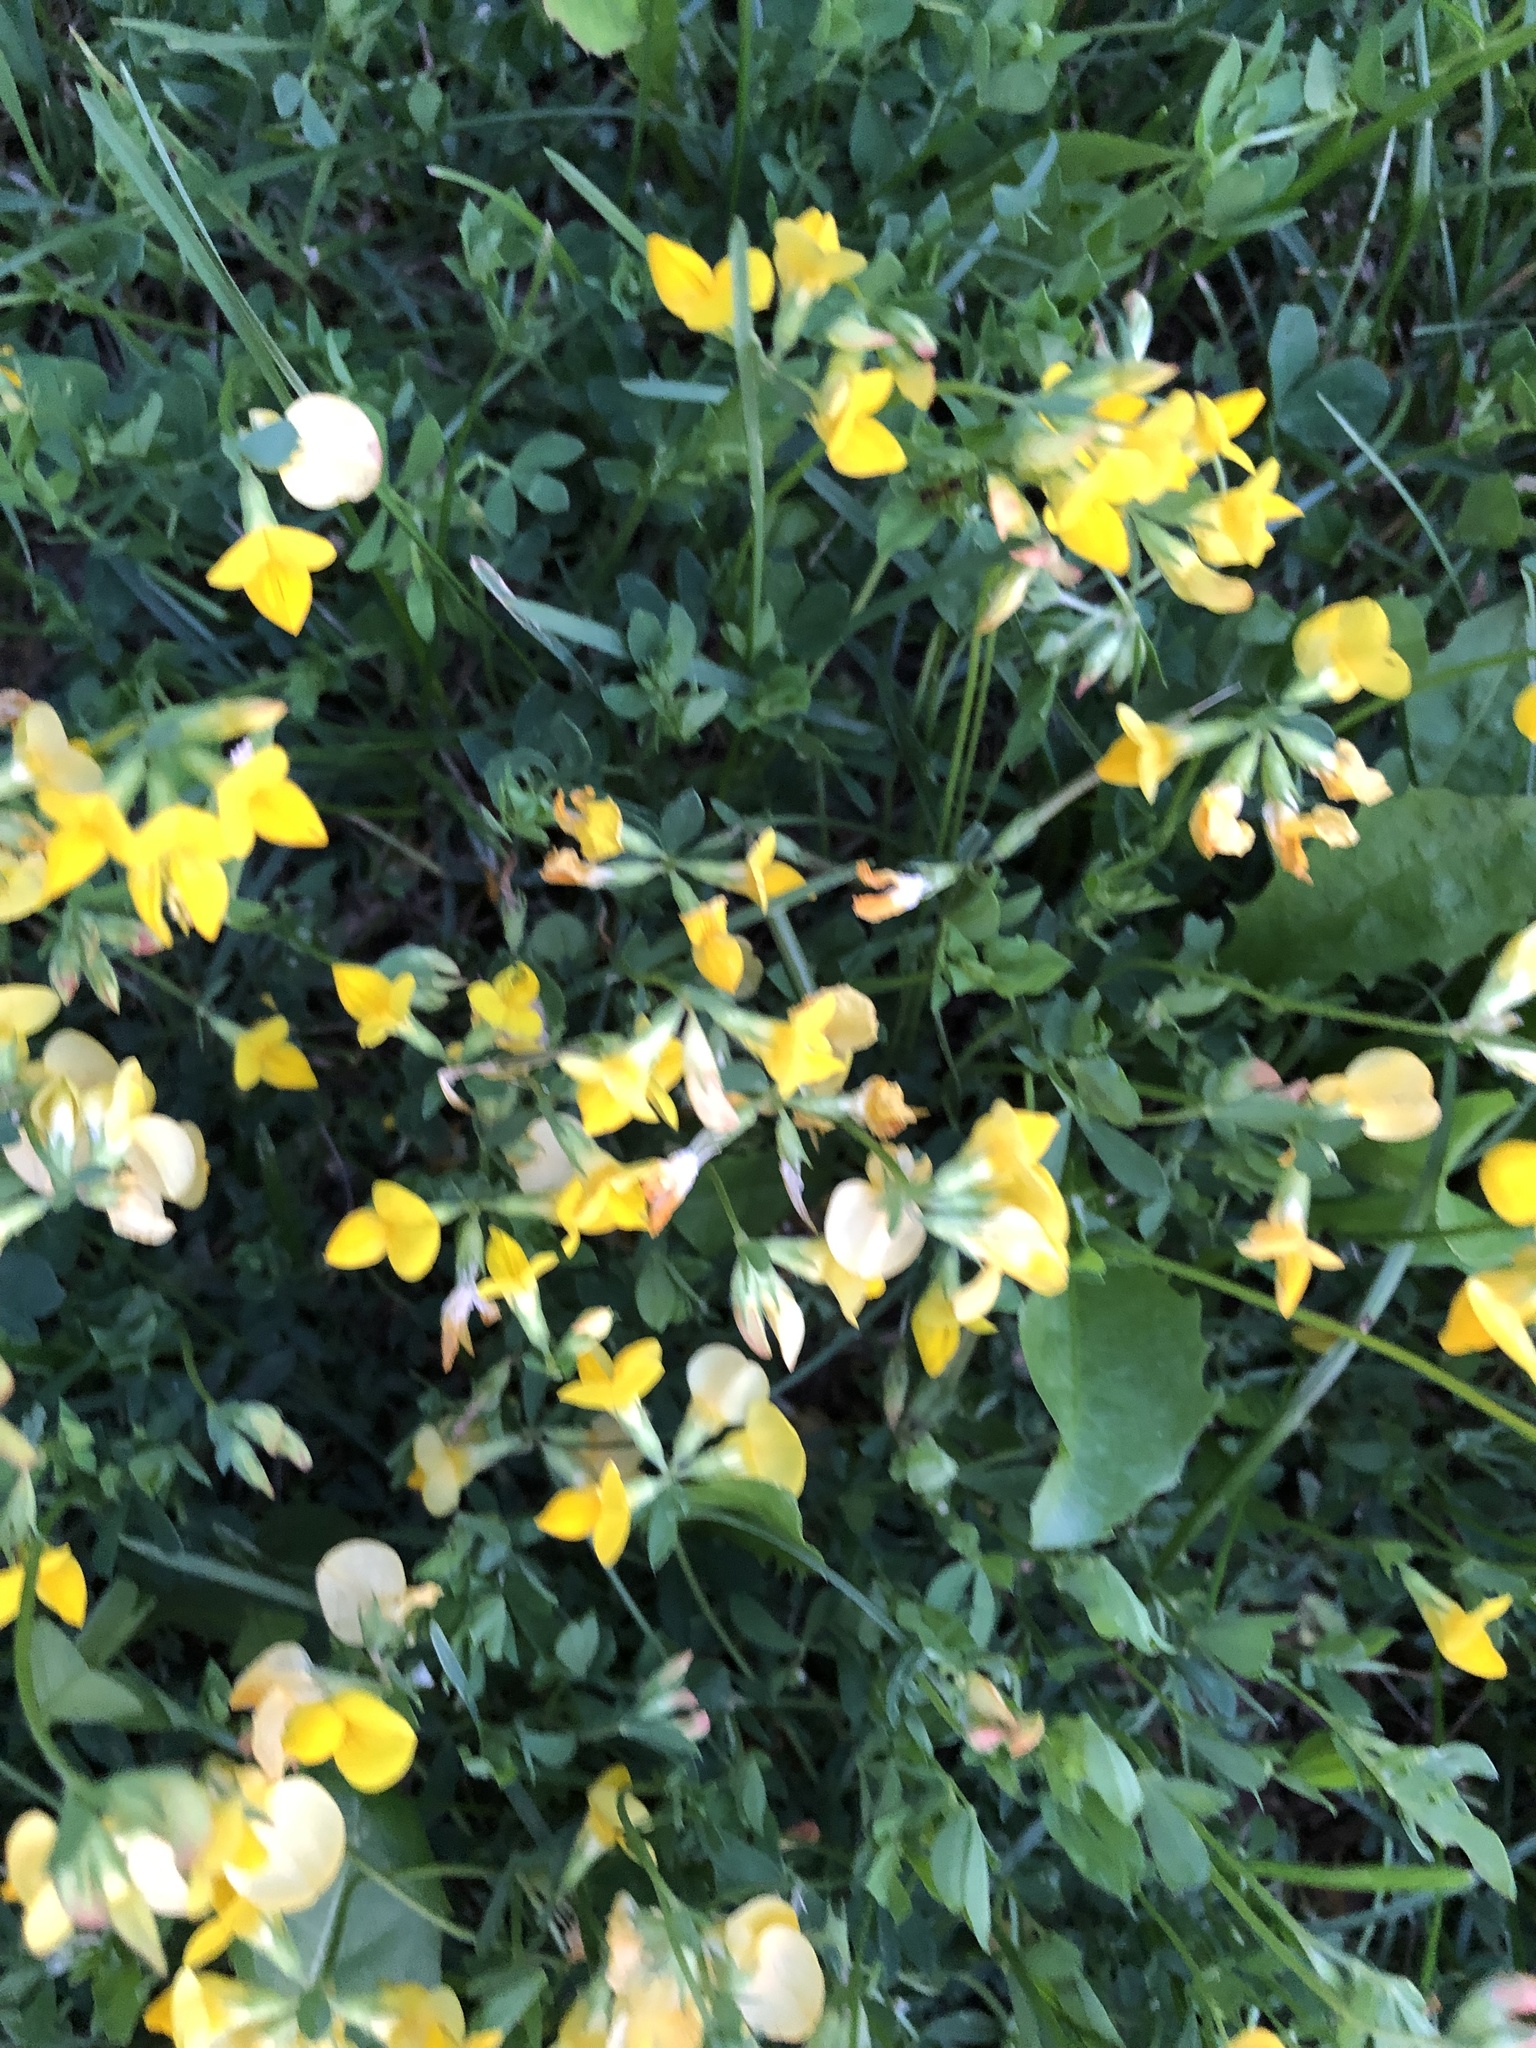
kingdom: Plantae
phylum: Tracheophyta
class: Magnoliopsida
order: Fabales
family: Fabaceae
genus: Lotus
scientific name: Lotus corniculatus
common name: Common bird's-foot-trefoil
